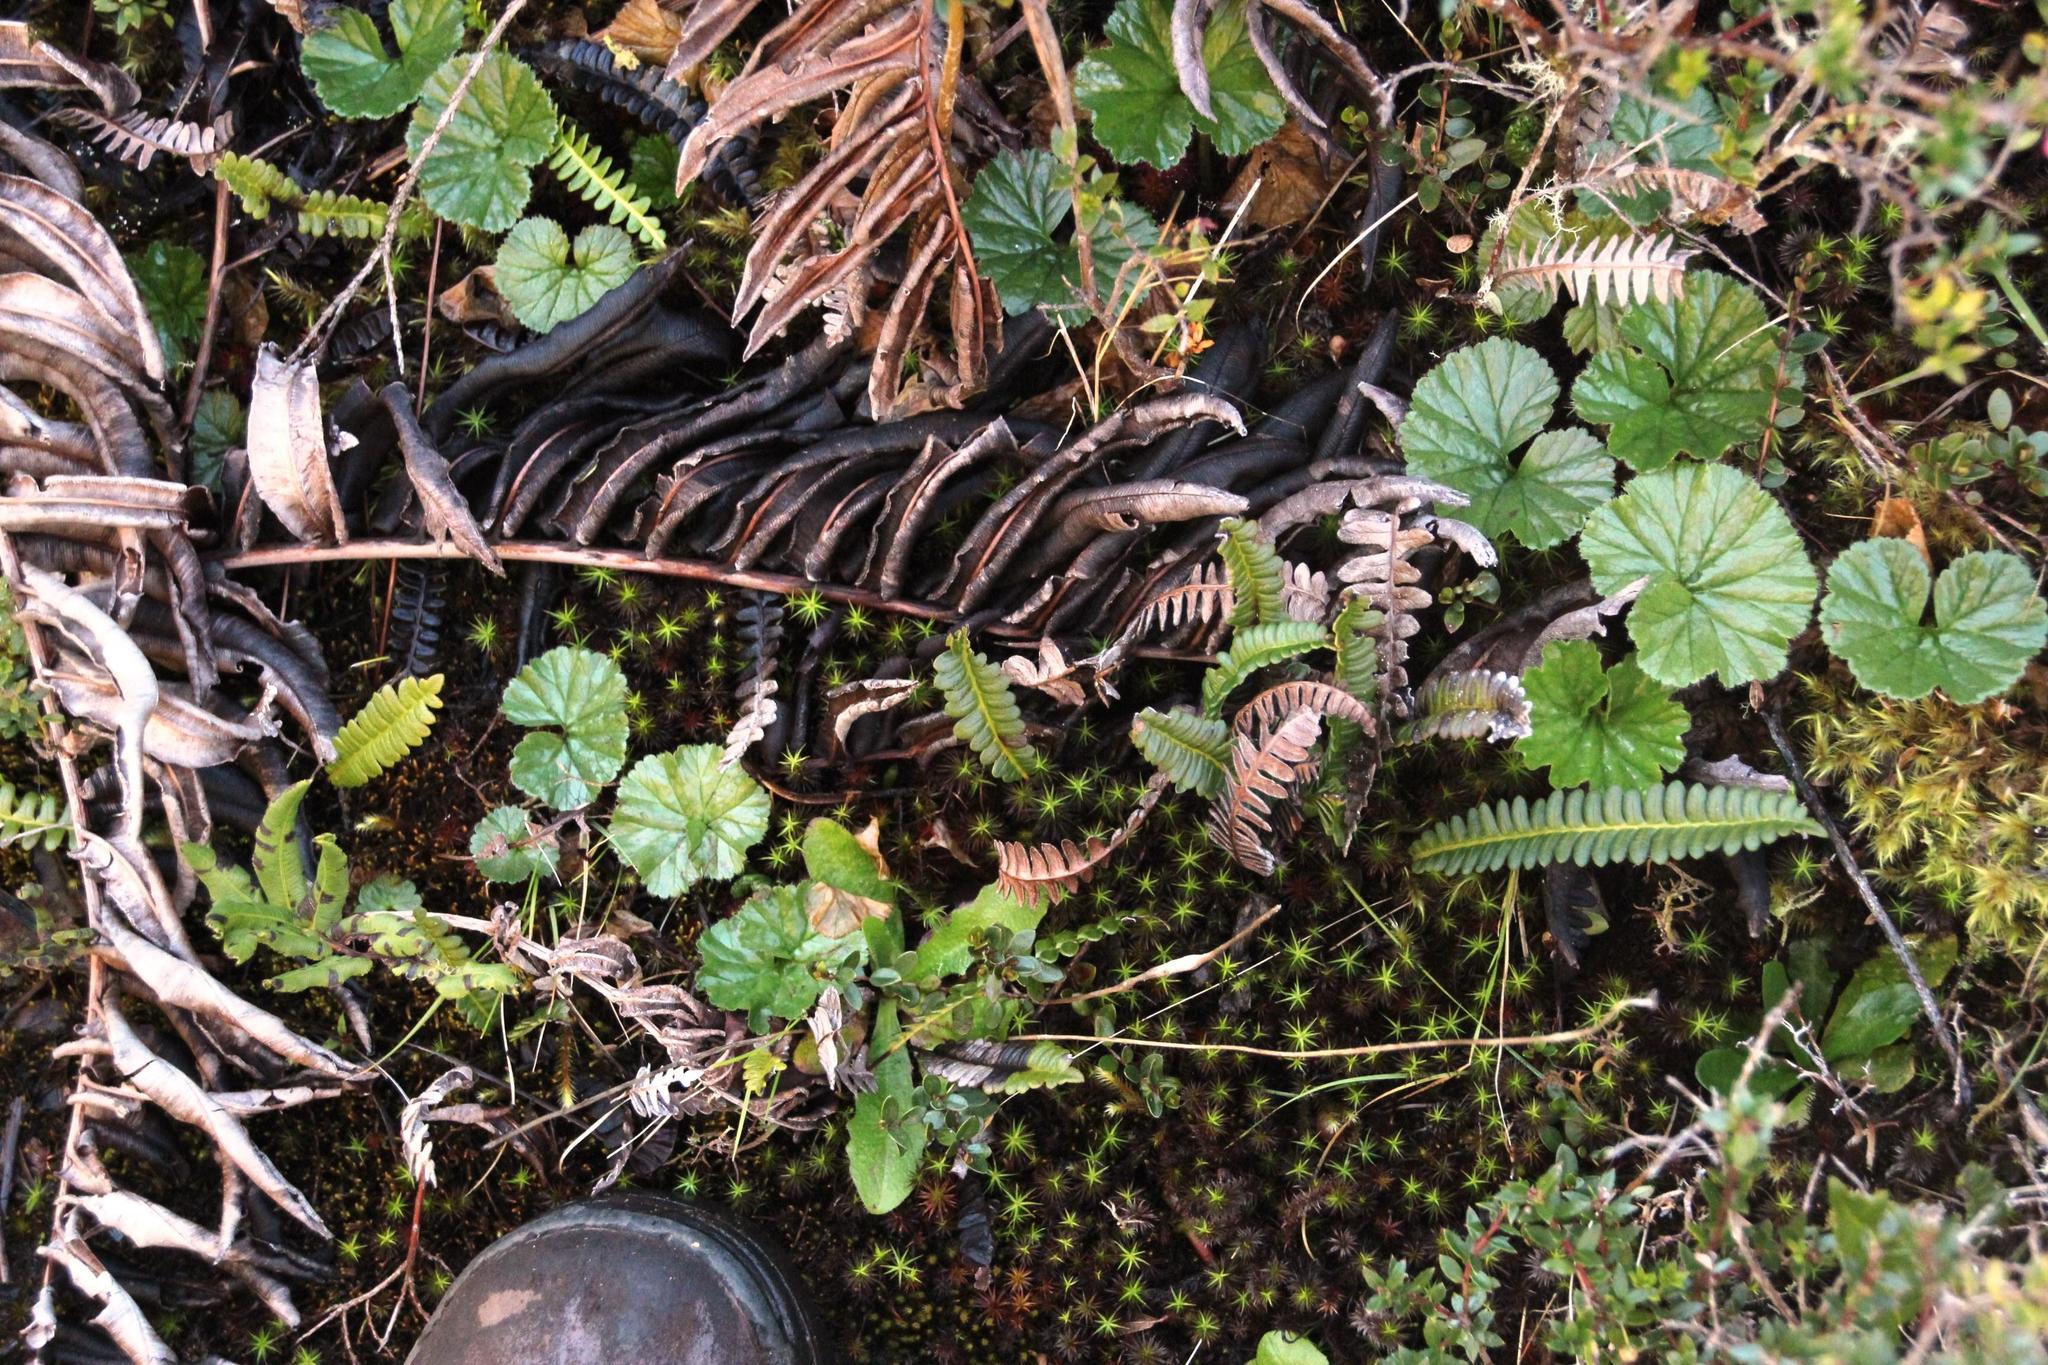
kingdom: Plantae
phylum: Tracheophyta
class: Magnoliopsida
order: Gunnerales
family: Gunneraceae
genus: Gunnera
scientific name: Gunnera magellanica
